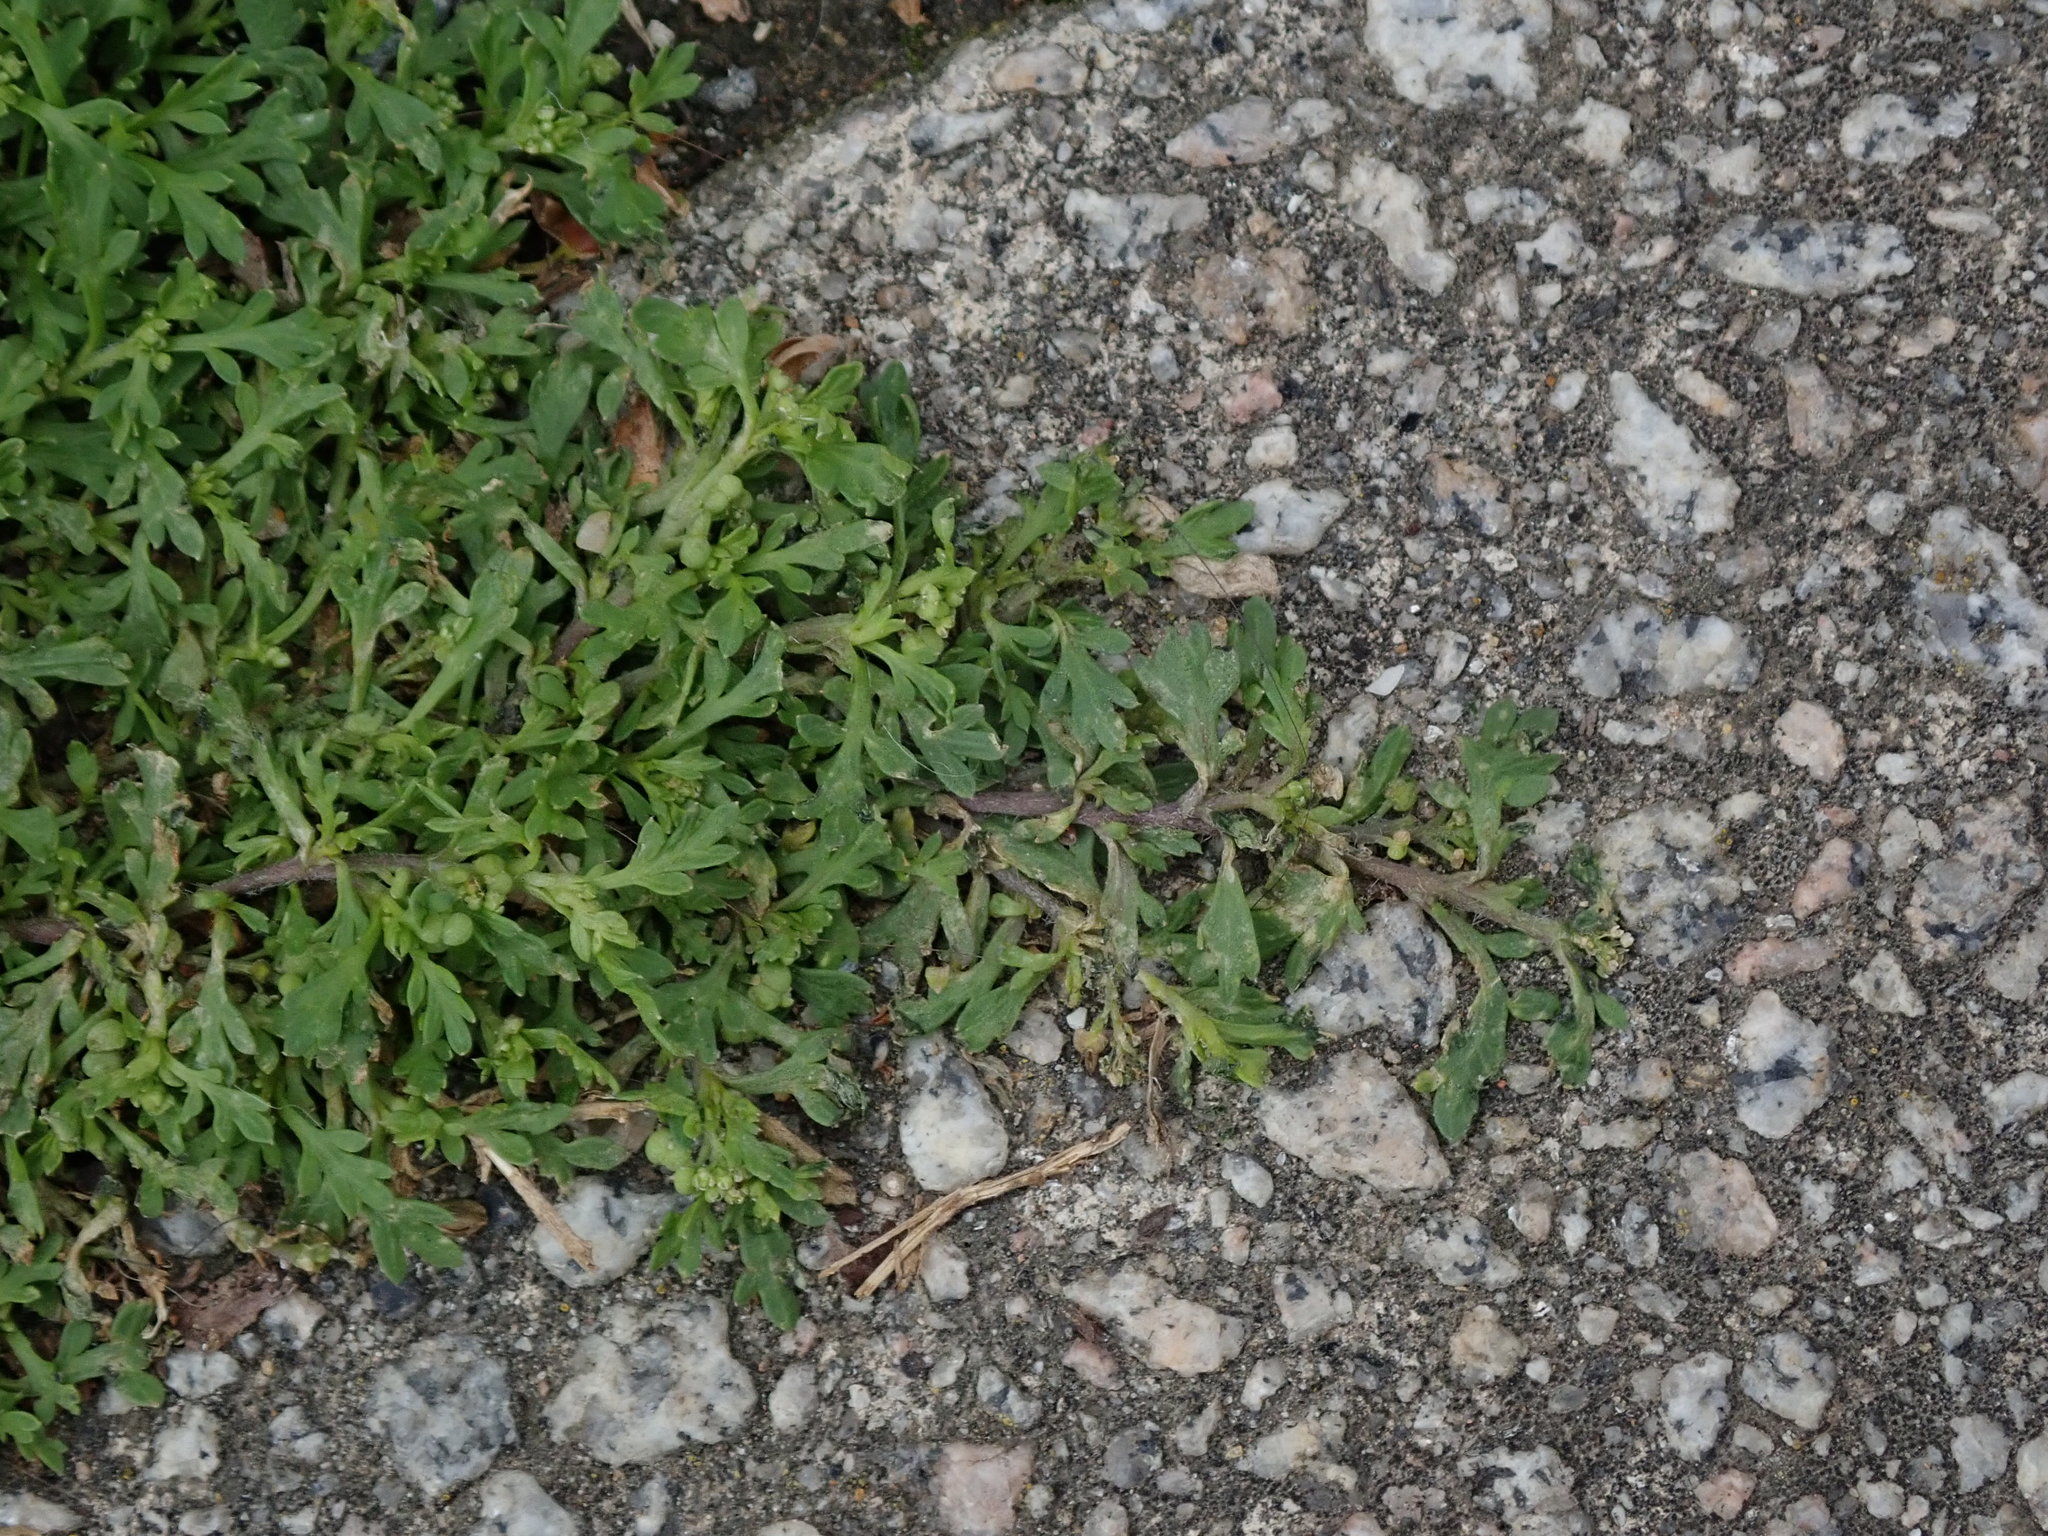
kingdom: Plantae
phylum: Tracheophyta
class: Magnoliopsida
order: Brassicales
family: Brassicaceae
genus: Lepidium
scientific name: Lepidium didymum
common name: Lesser swinecress
